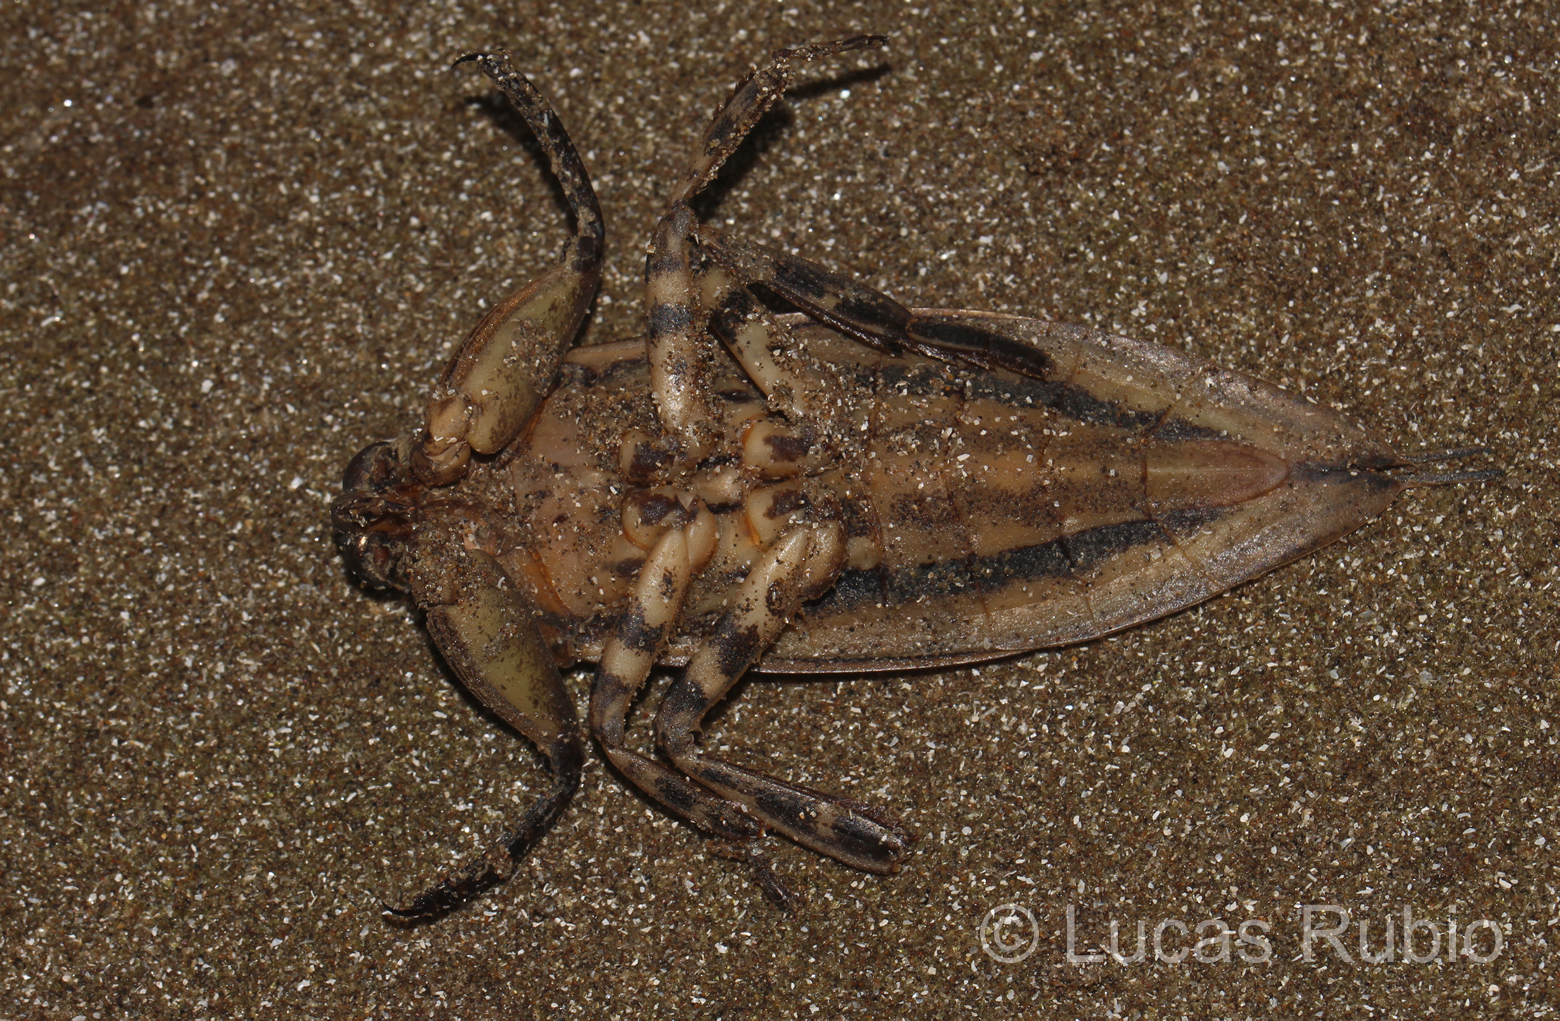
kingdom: Animalia
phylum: Arthropoda
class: Insecta
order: Hemiptera
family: Belostomatidae
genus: Lethocerus
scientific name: Lethocerus annulipes
